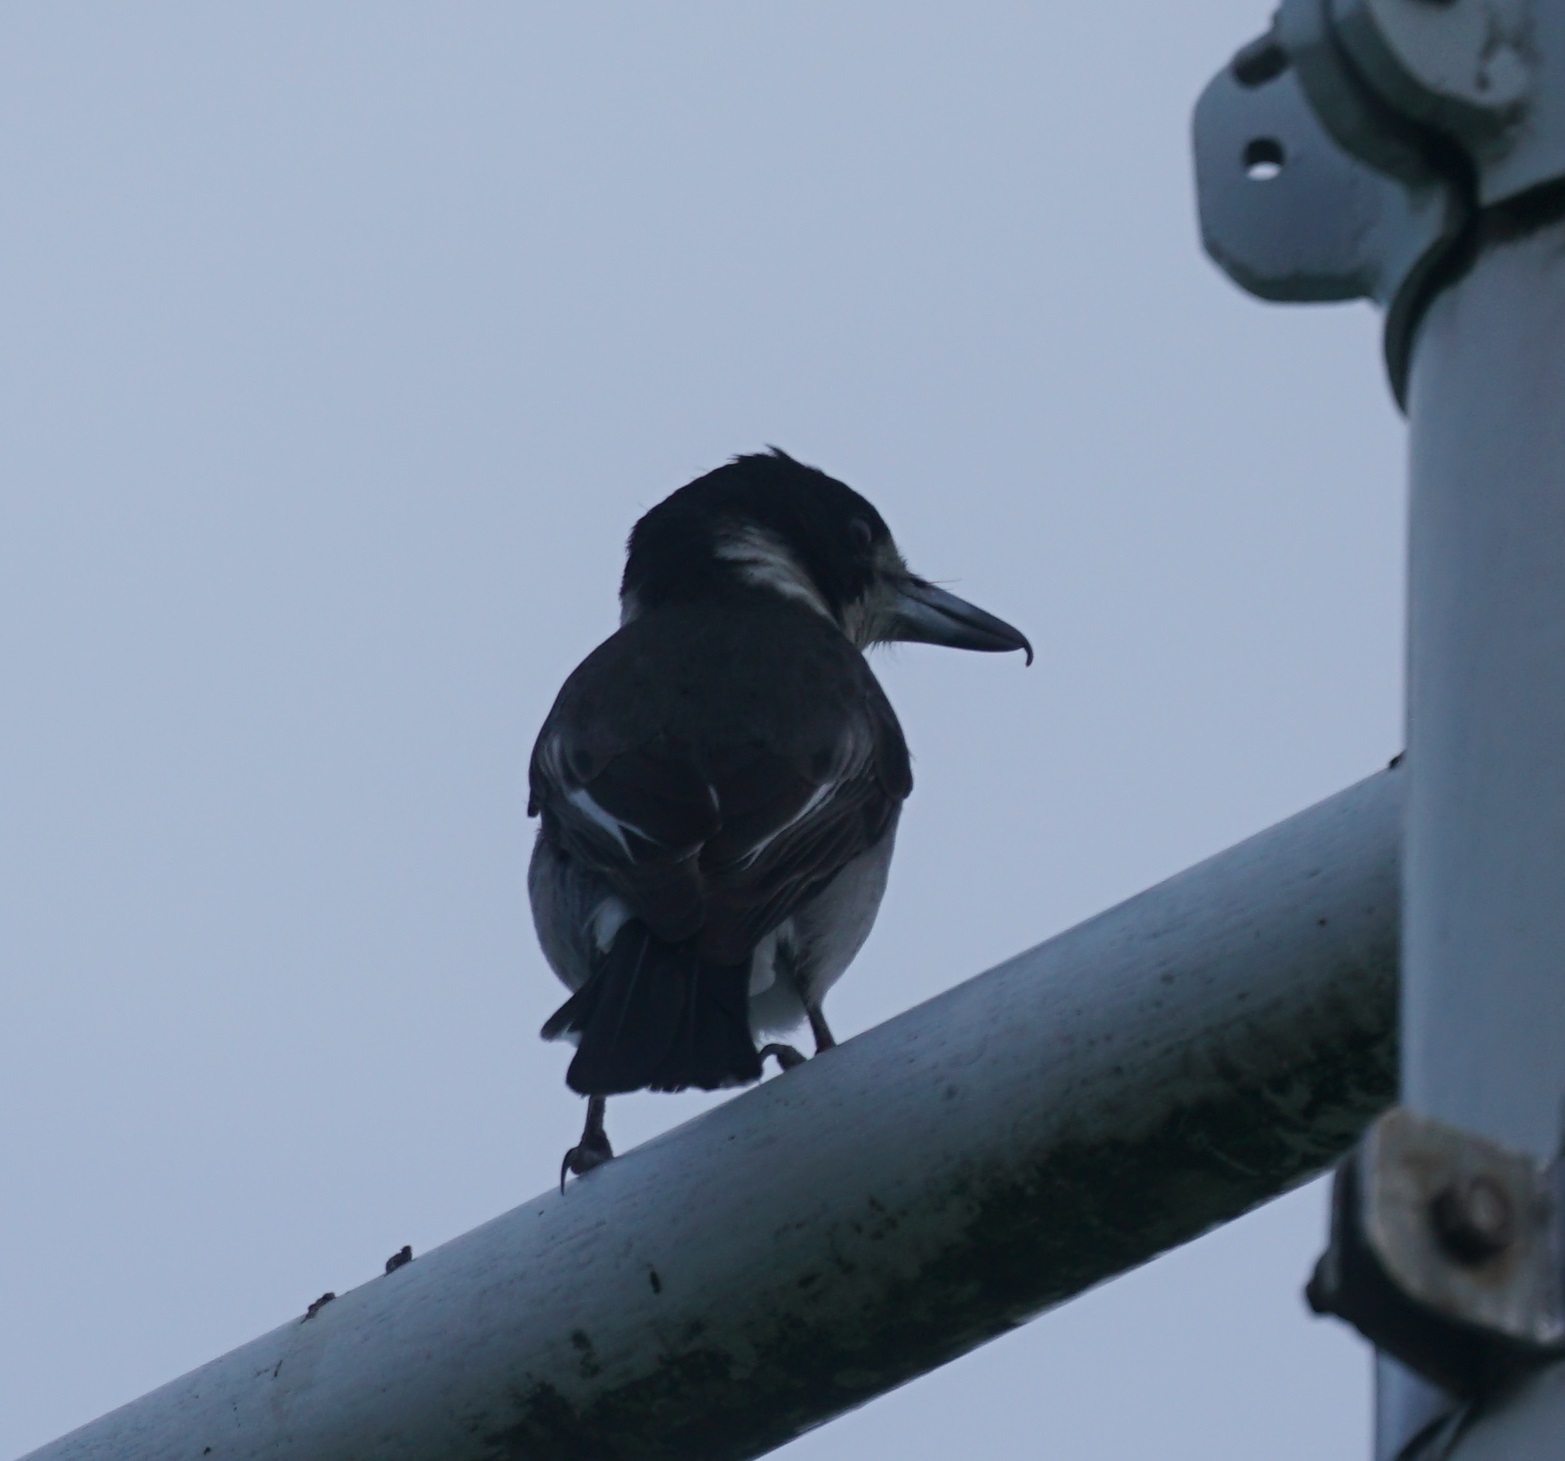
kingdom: Animalia
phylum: Chordata
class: Aves
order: Passeriformes
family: Cracticidae
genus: Cracticus
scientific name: Cracticus torquatus
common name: Grey butcherbird
